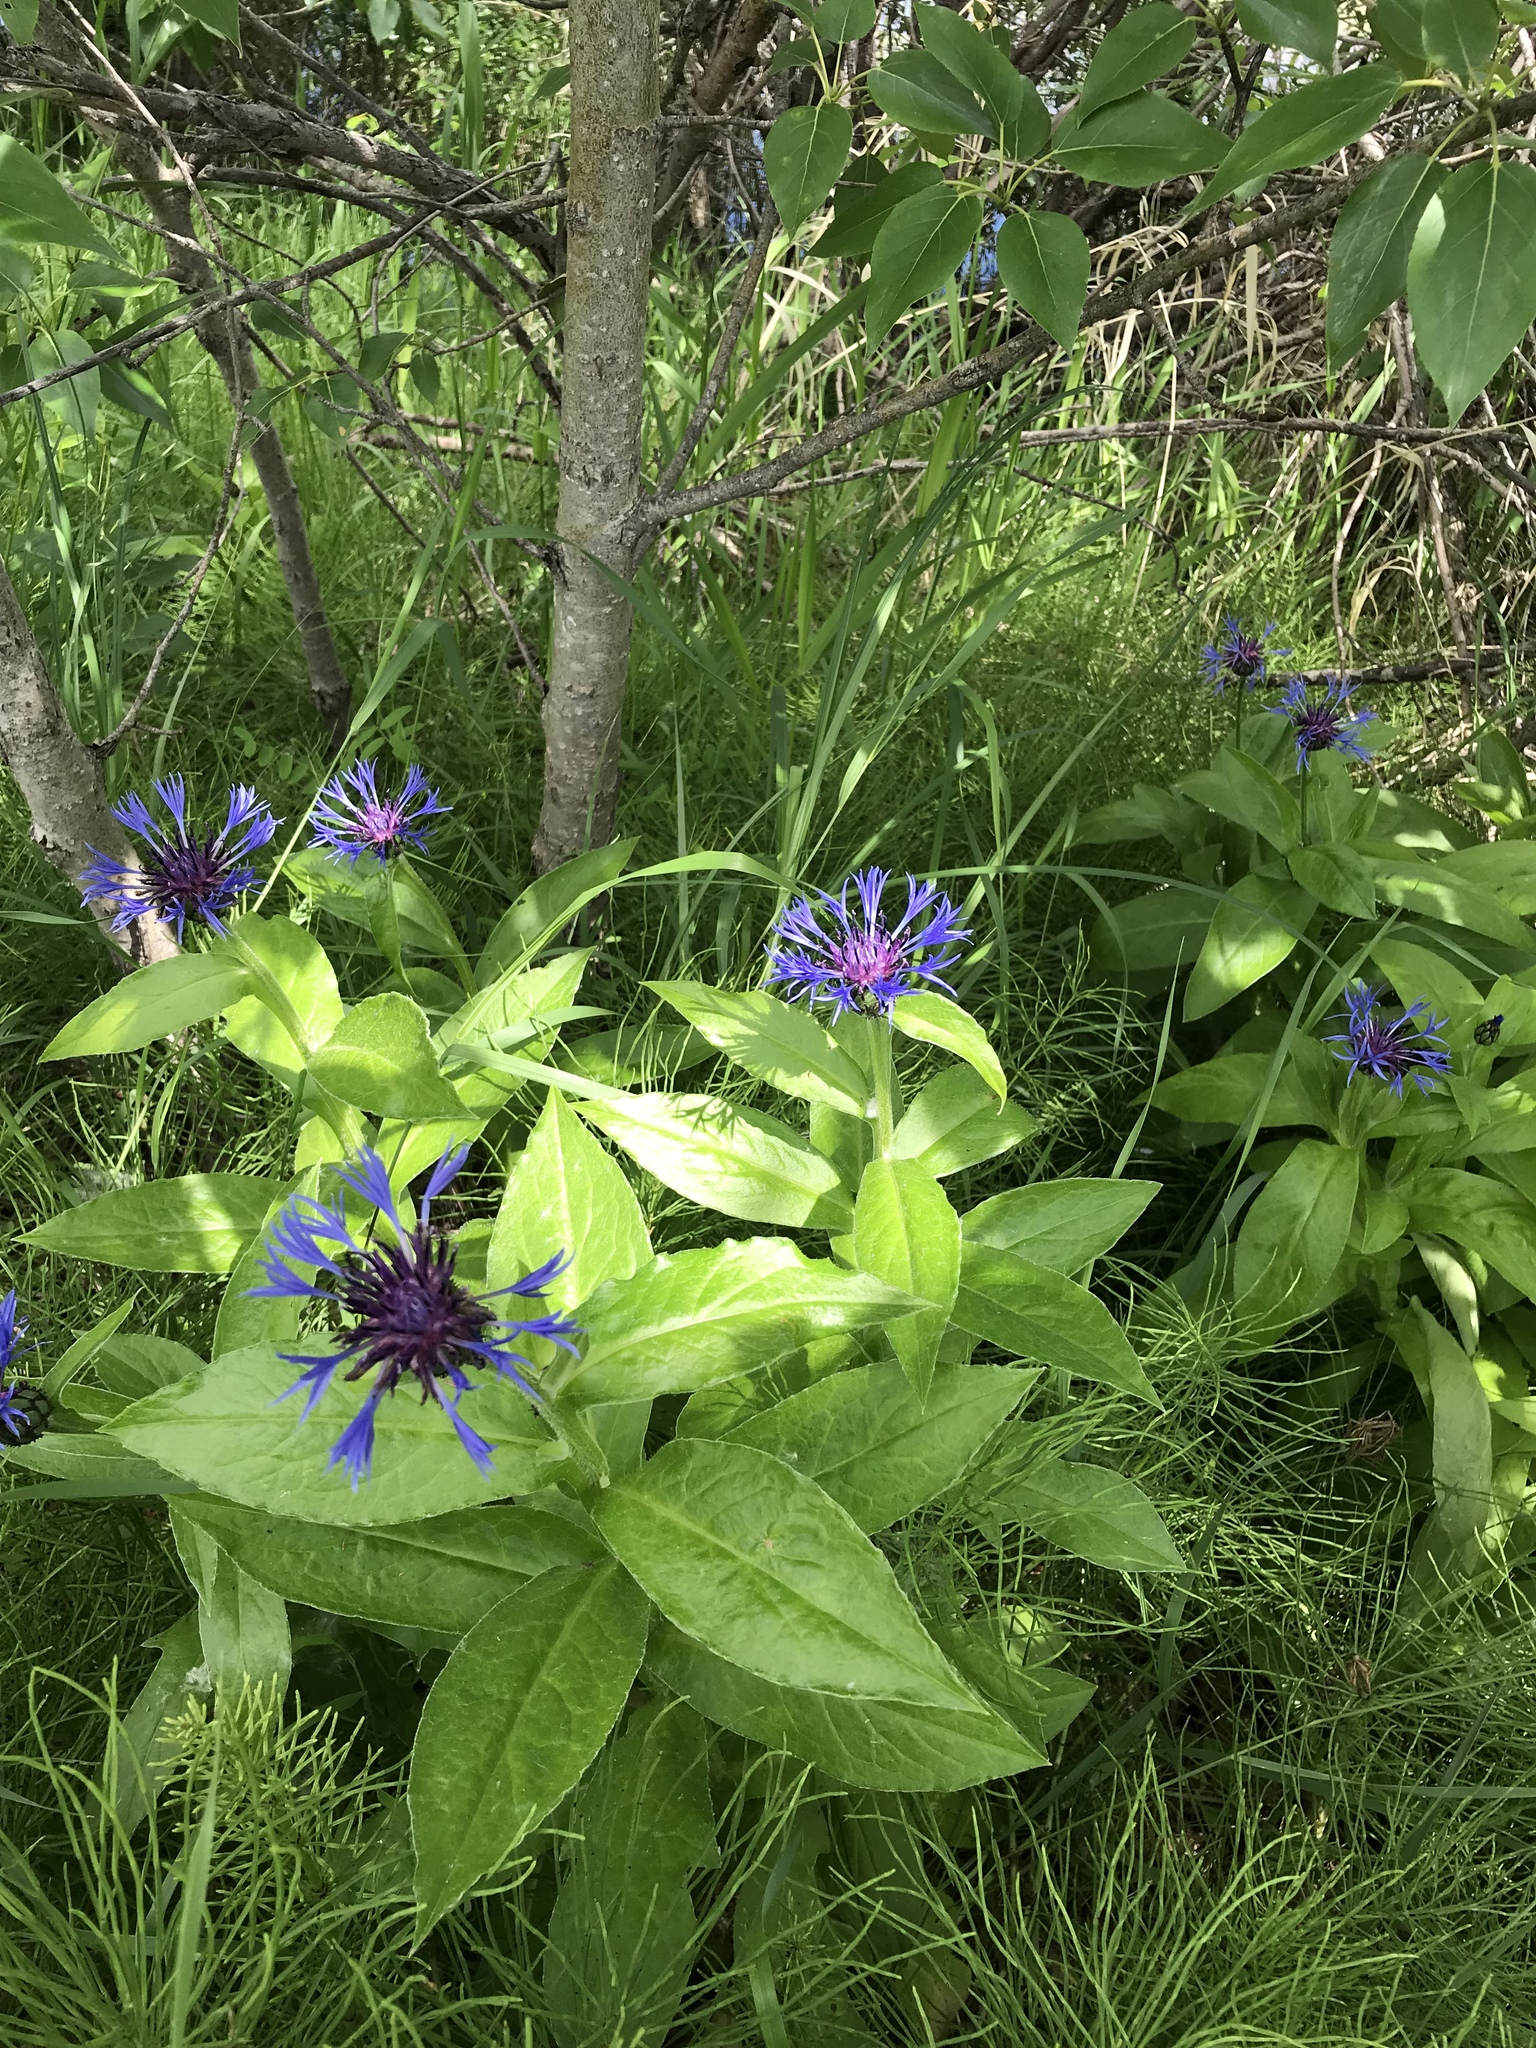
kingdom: Plantae
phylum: Tracheophyta
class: Magnoliopsida
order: Asterales
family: Asteraceae
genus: Centaurea
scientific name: Centaurea montana
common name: Perennial cornflower
